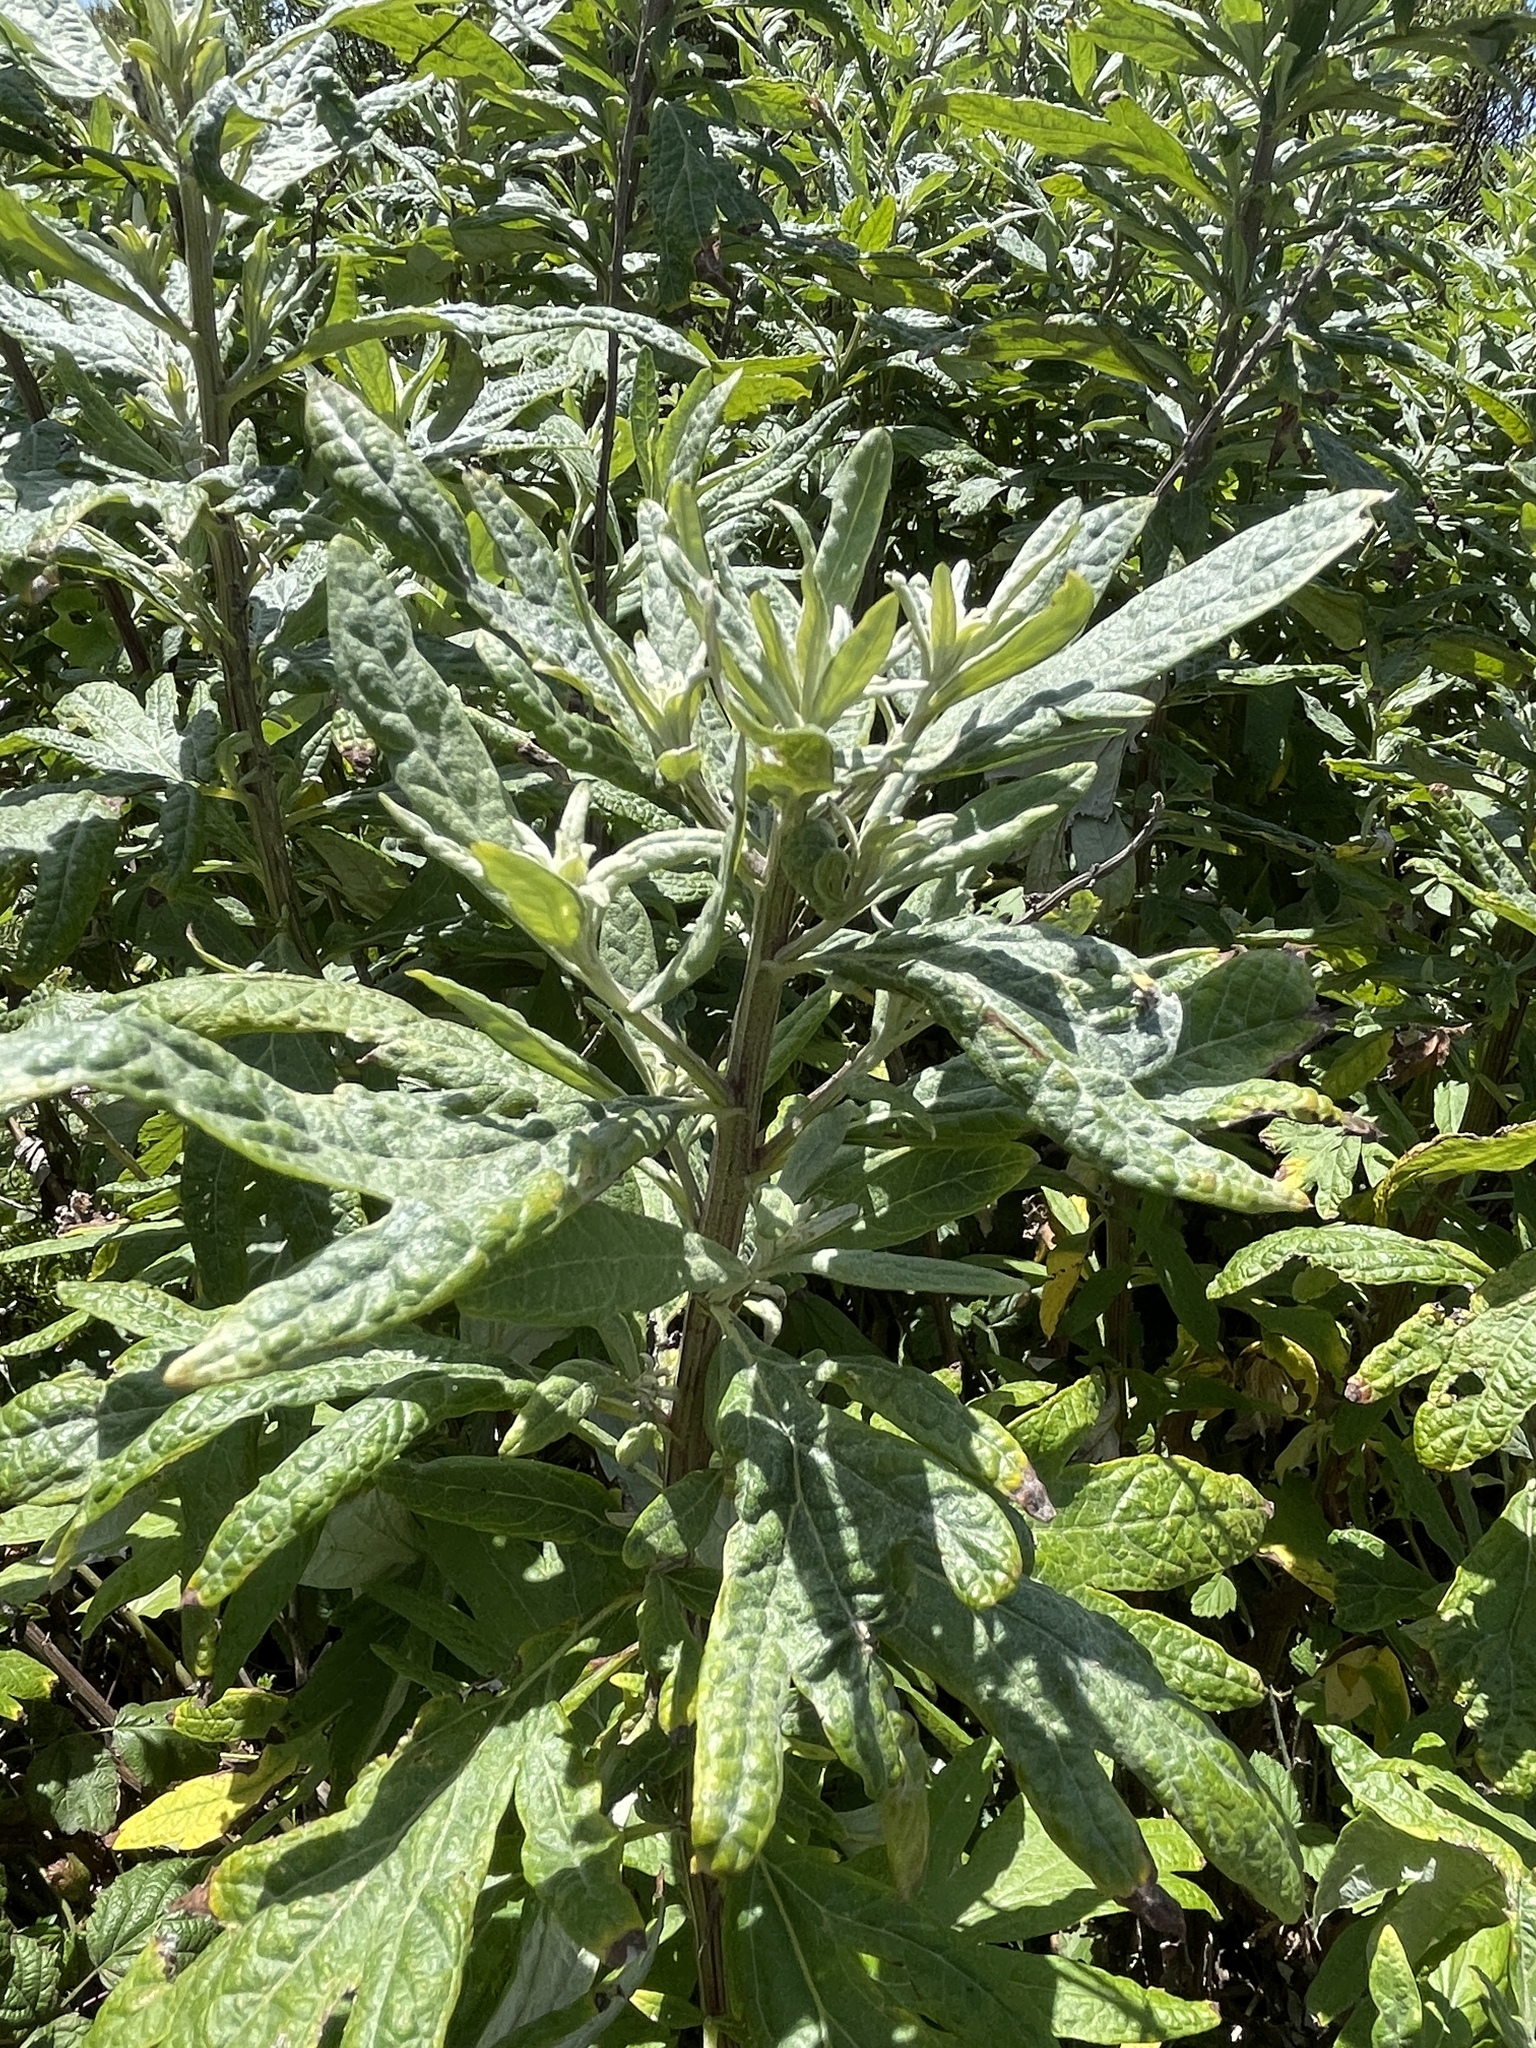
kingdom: Plantae
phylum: Tracheophyta
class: Magnoliopsida
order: Asterales
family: Asteraceae
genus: Artemisia
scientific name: Artemisia douglasiana
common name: Northwest mugwort
